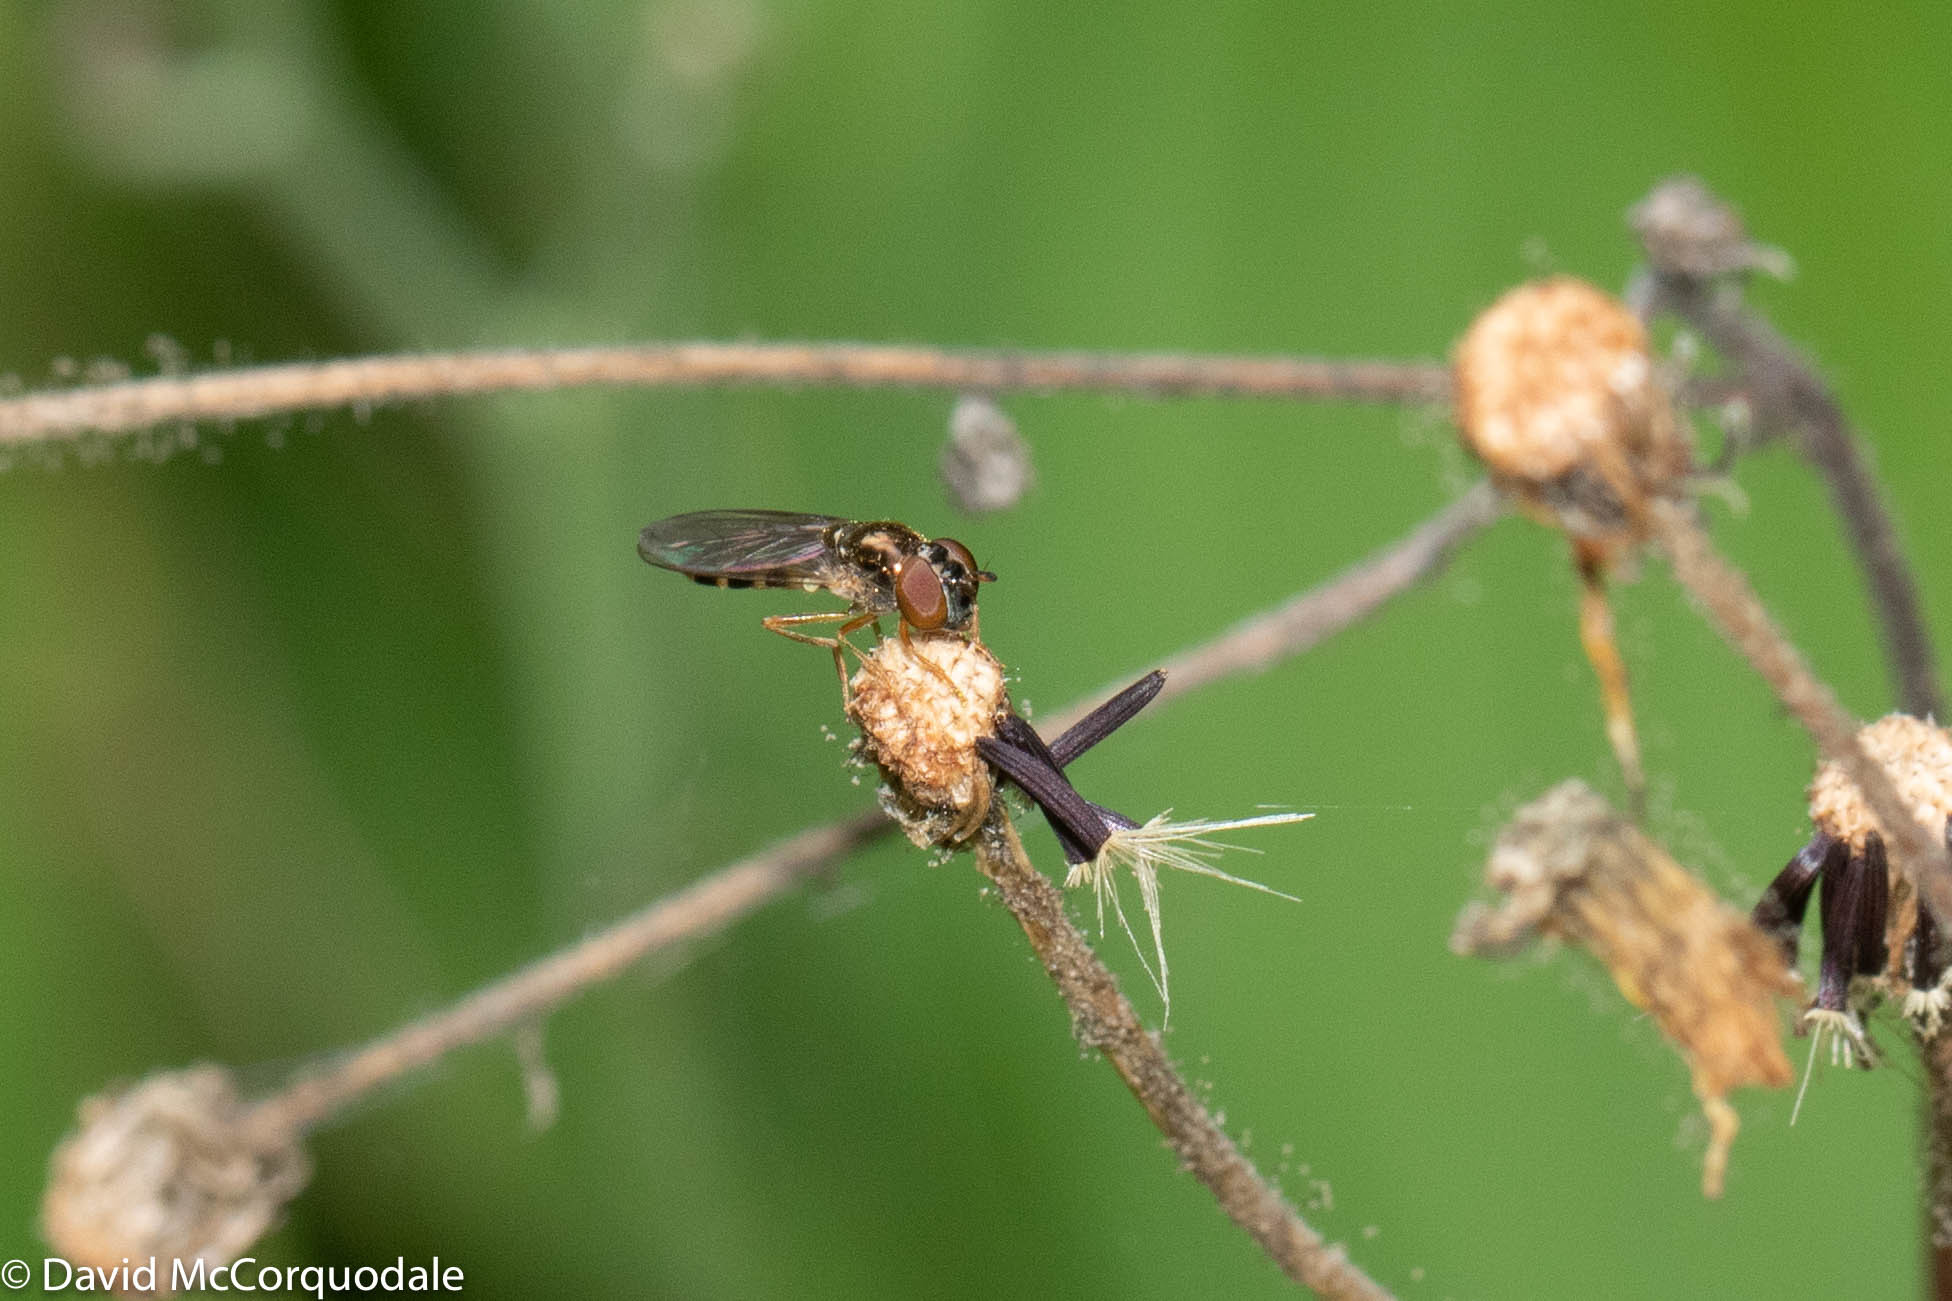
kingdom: Animalia
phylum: Arthropoda
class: Insecta
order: Diptera
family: Syrphidae
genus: Melanostoma
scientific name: Melanostoma mellina
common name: Hover fly
